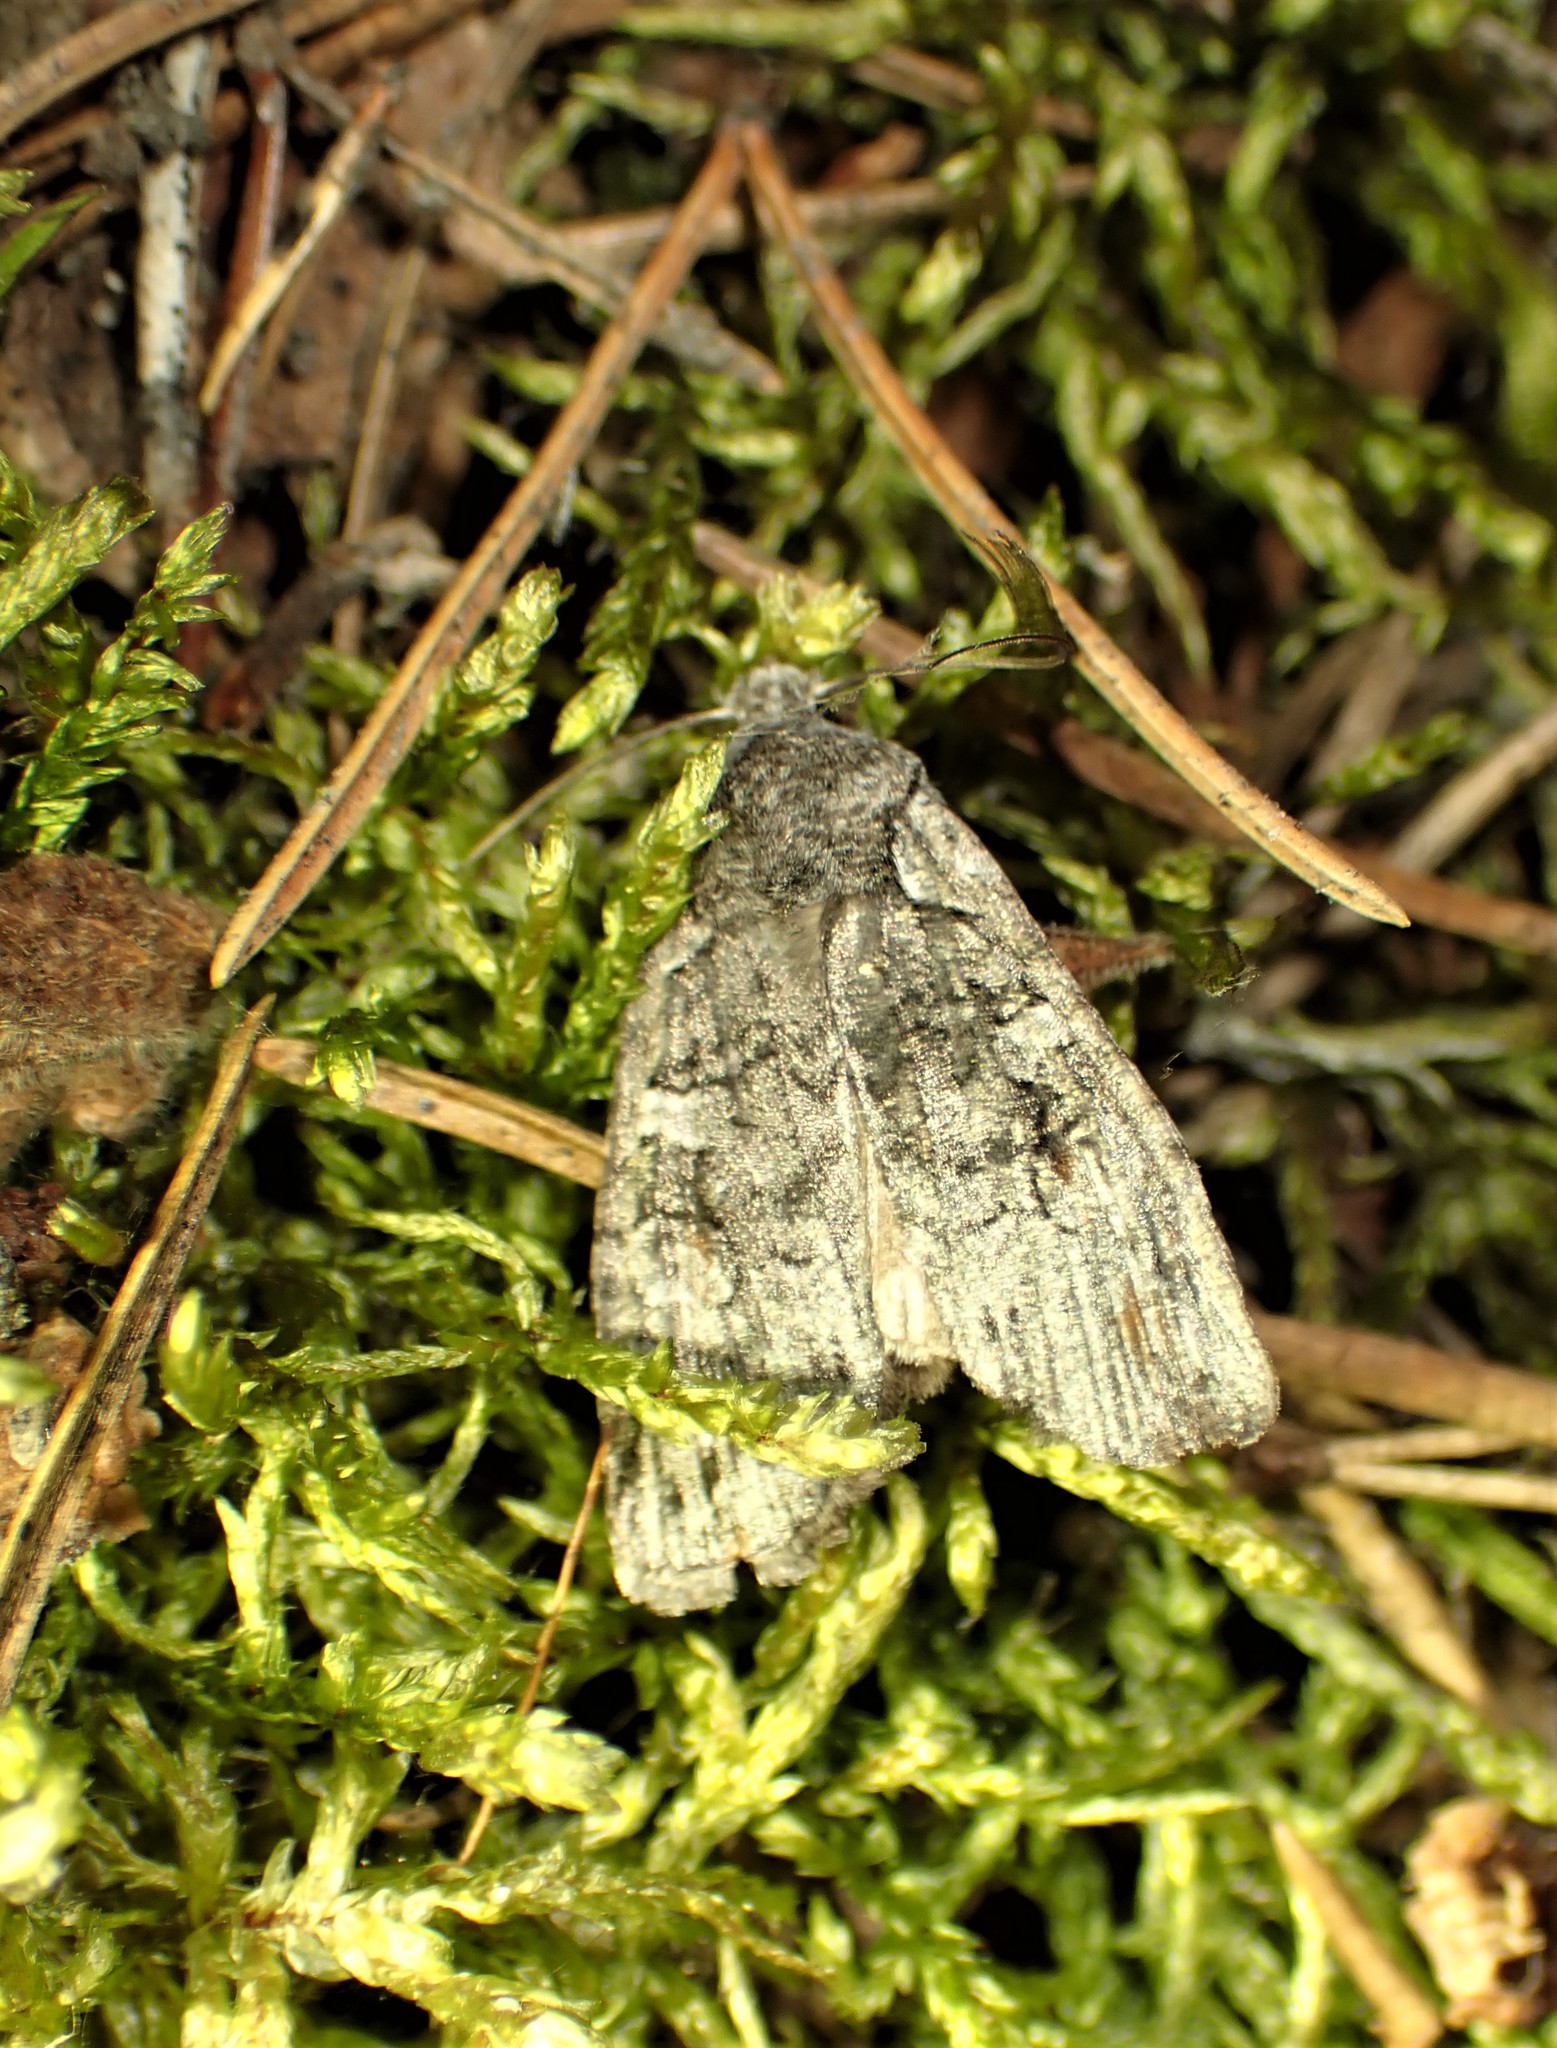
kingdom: Animalia
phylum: Arthropoda
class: Insecta
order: Lepidoptera
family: Noctuidae
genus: Lithophane
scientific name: Lithophane baileyi
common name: Bailey's pinion moth
